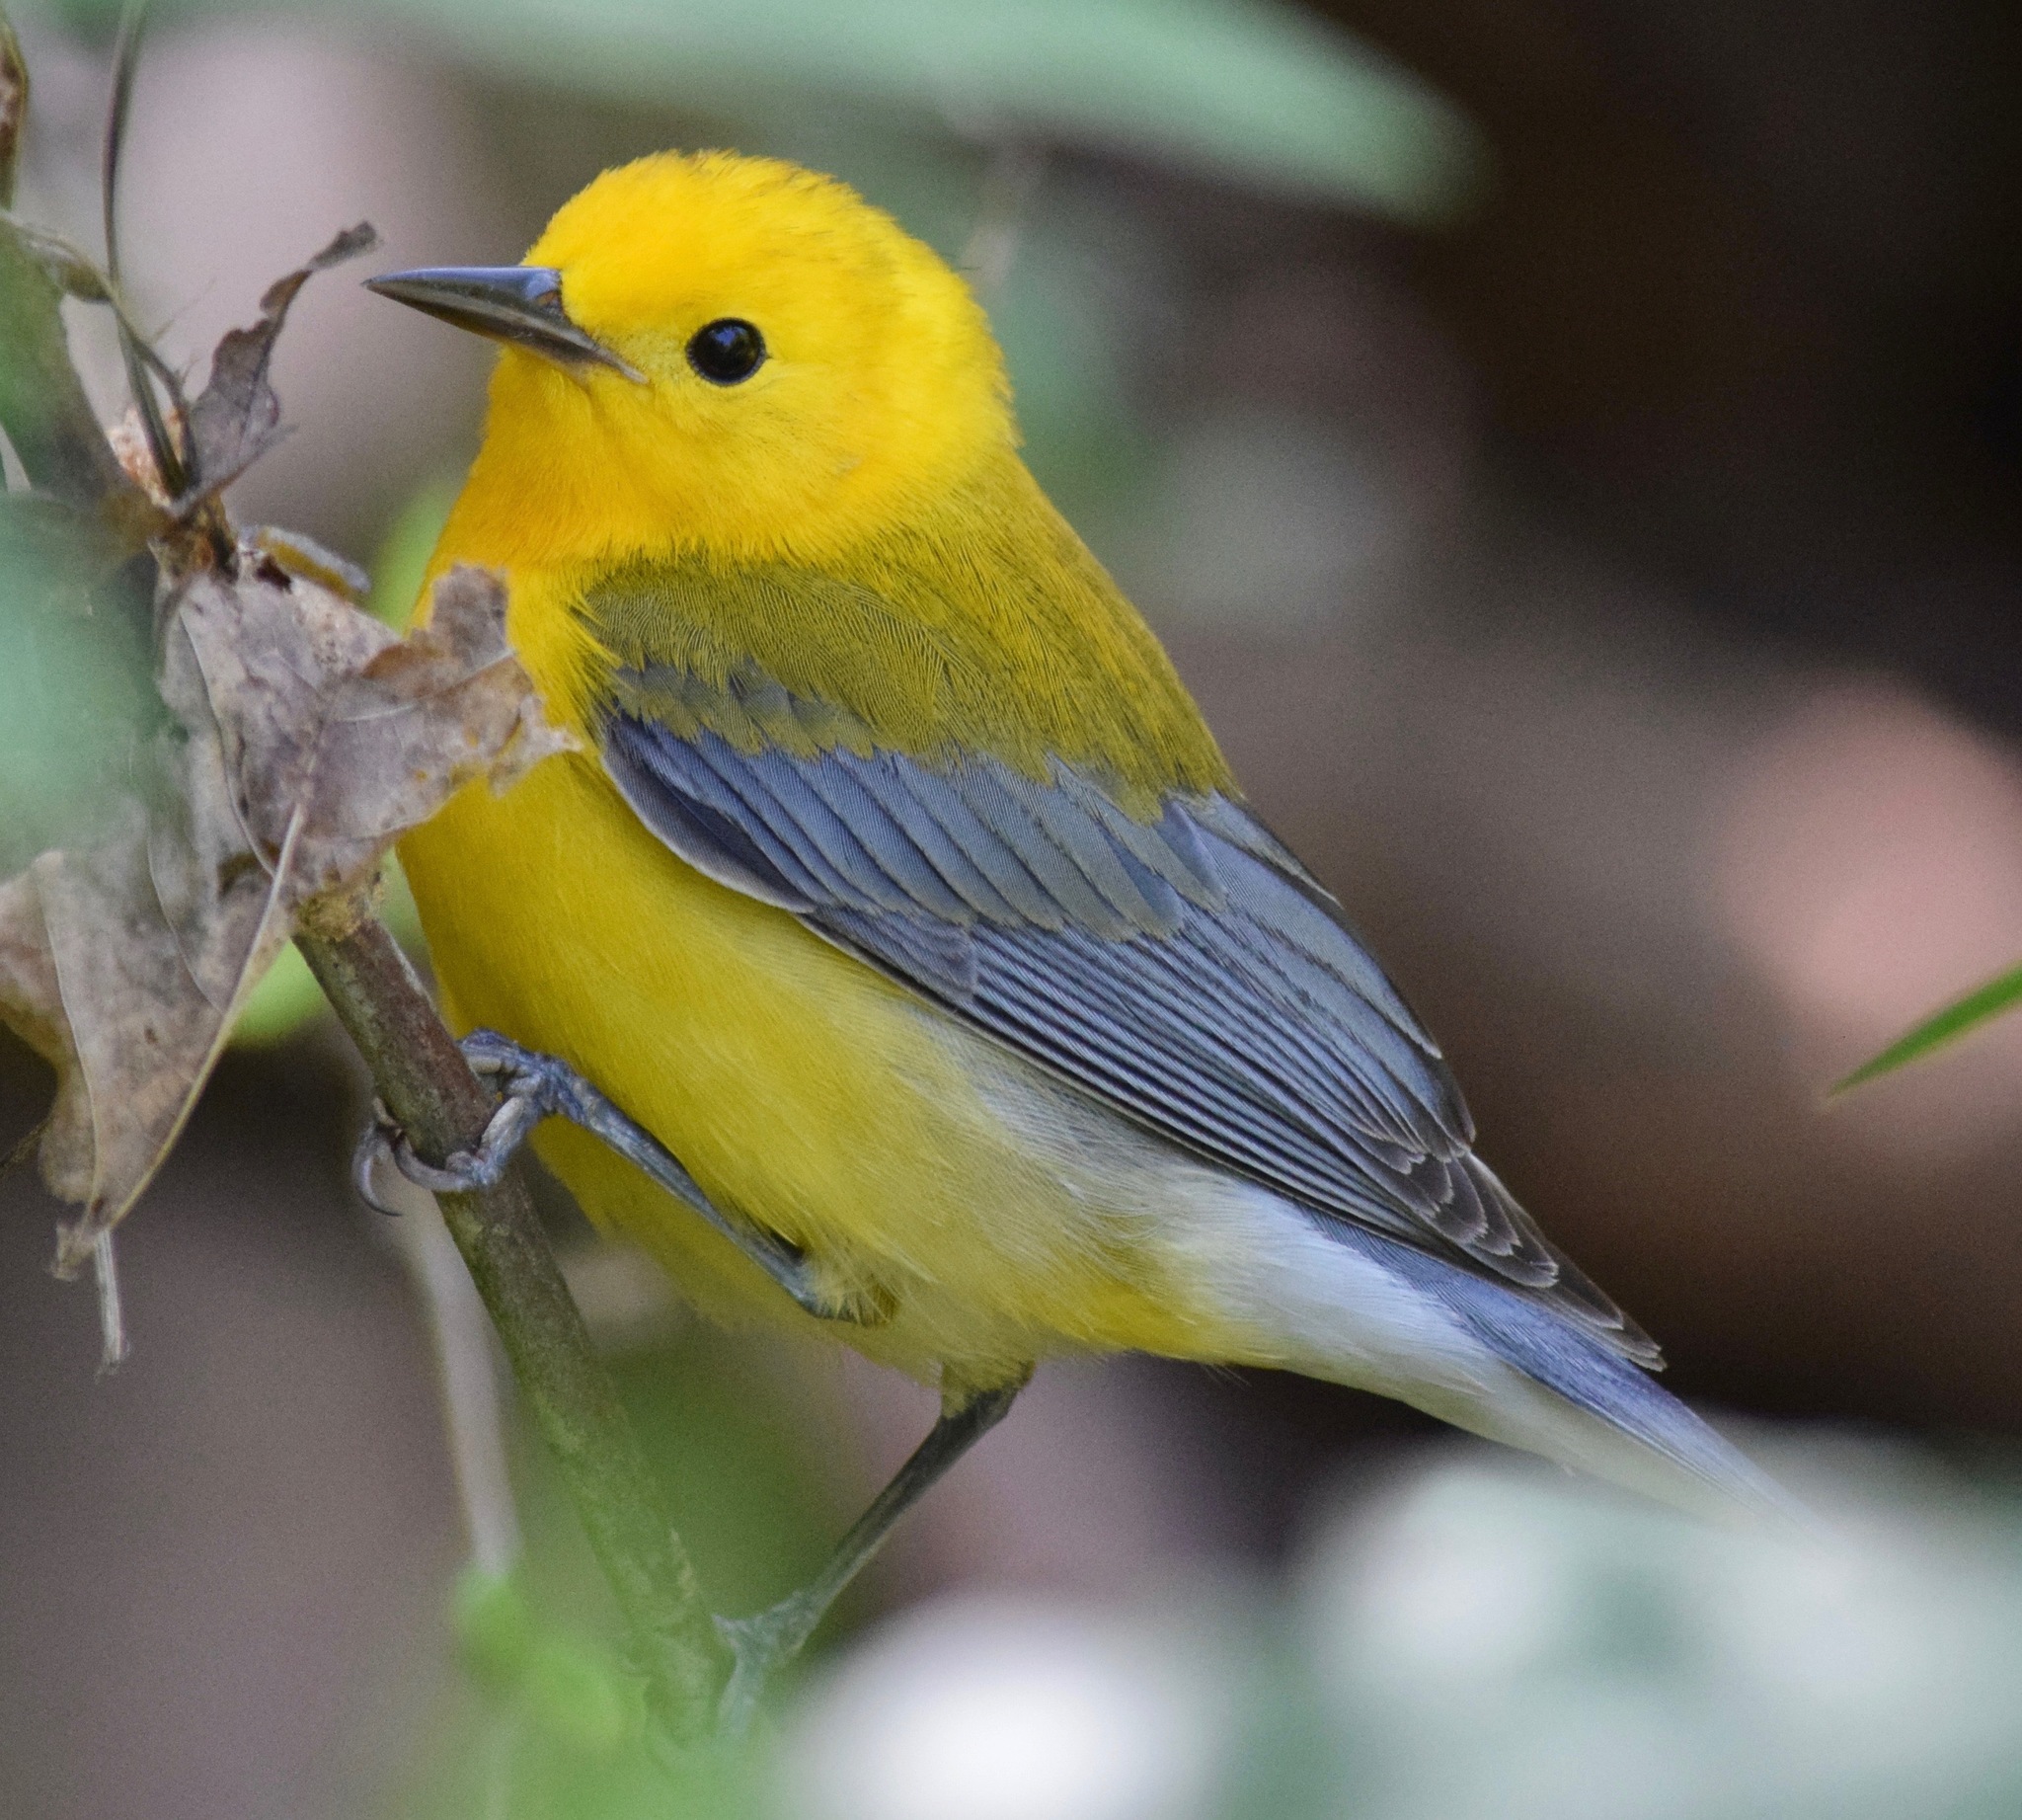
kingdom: Animalia
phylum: Chordata
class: Aves
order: Passeriformes
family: Parulidae
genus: Protonotaria
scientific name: Protonotaria citrea
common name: Prothonotary warbler
